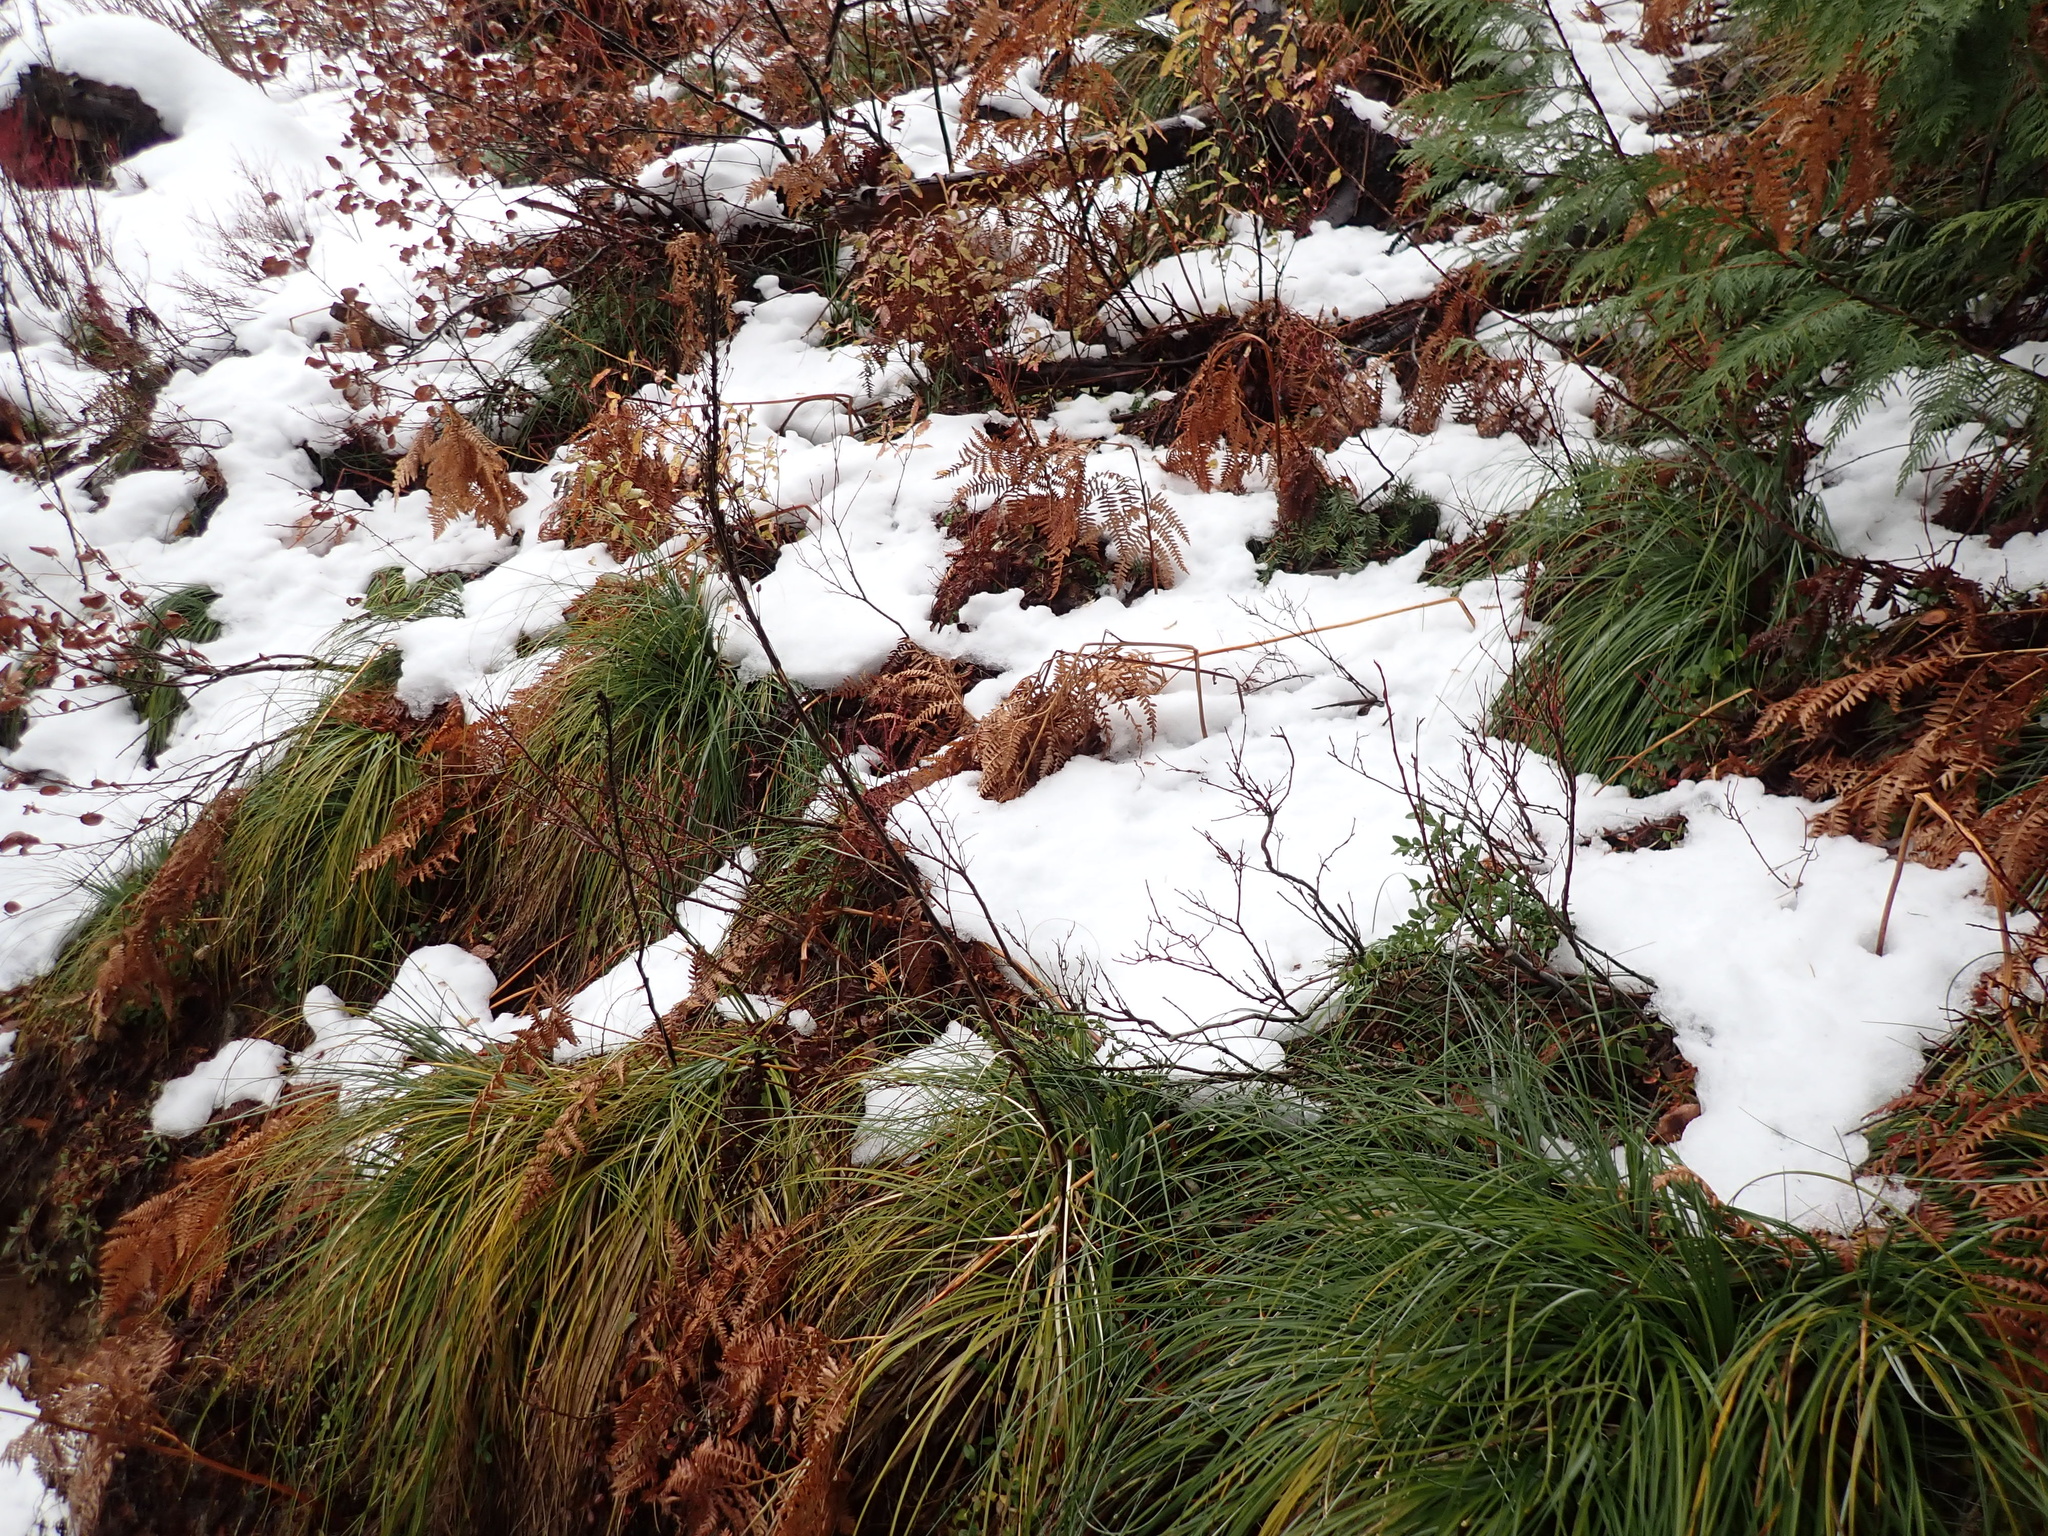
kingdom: Plantae
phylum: Tracheophyta
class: Liliopsida
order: Liliales
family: Melanthiaceae
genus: Xerophyllum
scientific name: Xerophyllum tenax
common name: Bear-grass
